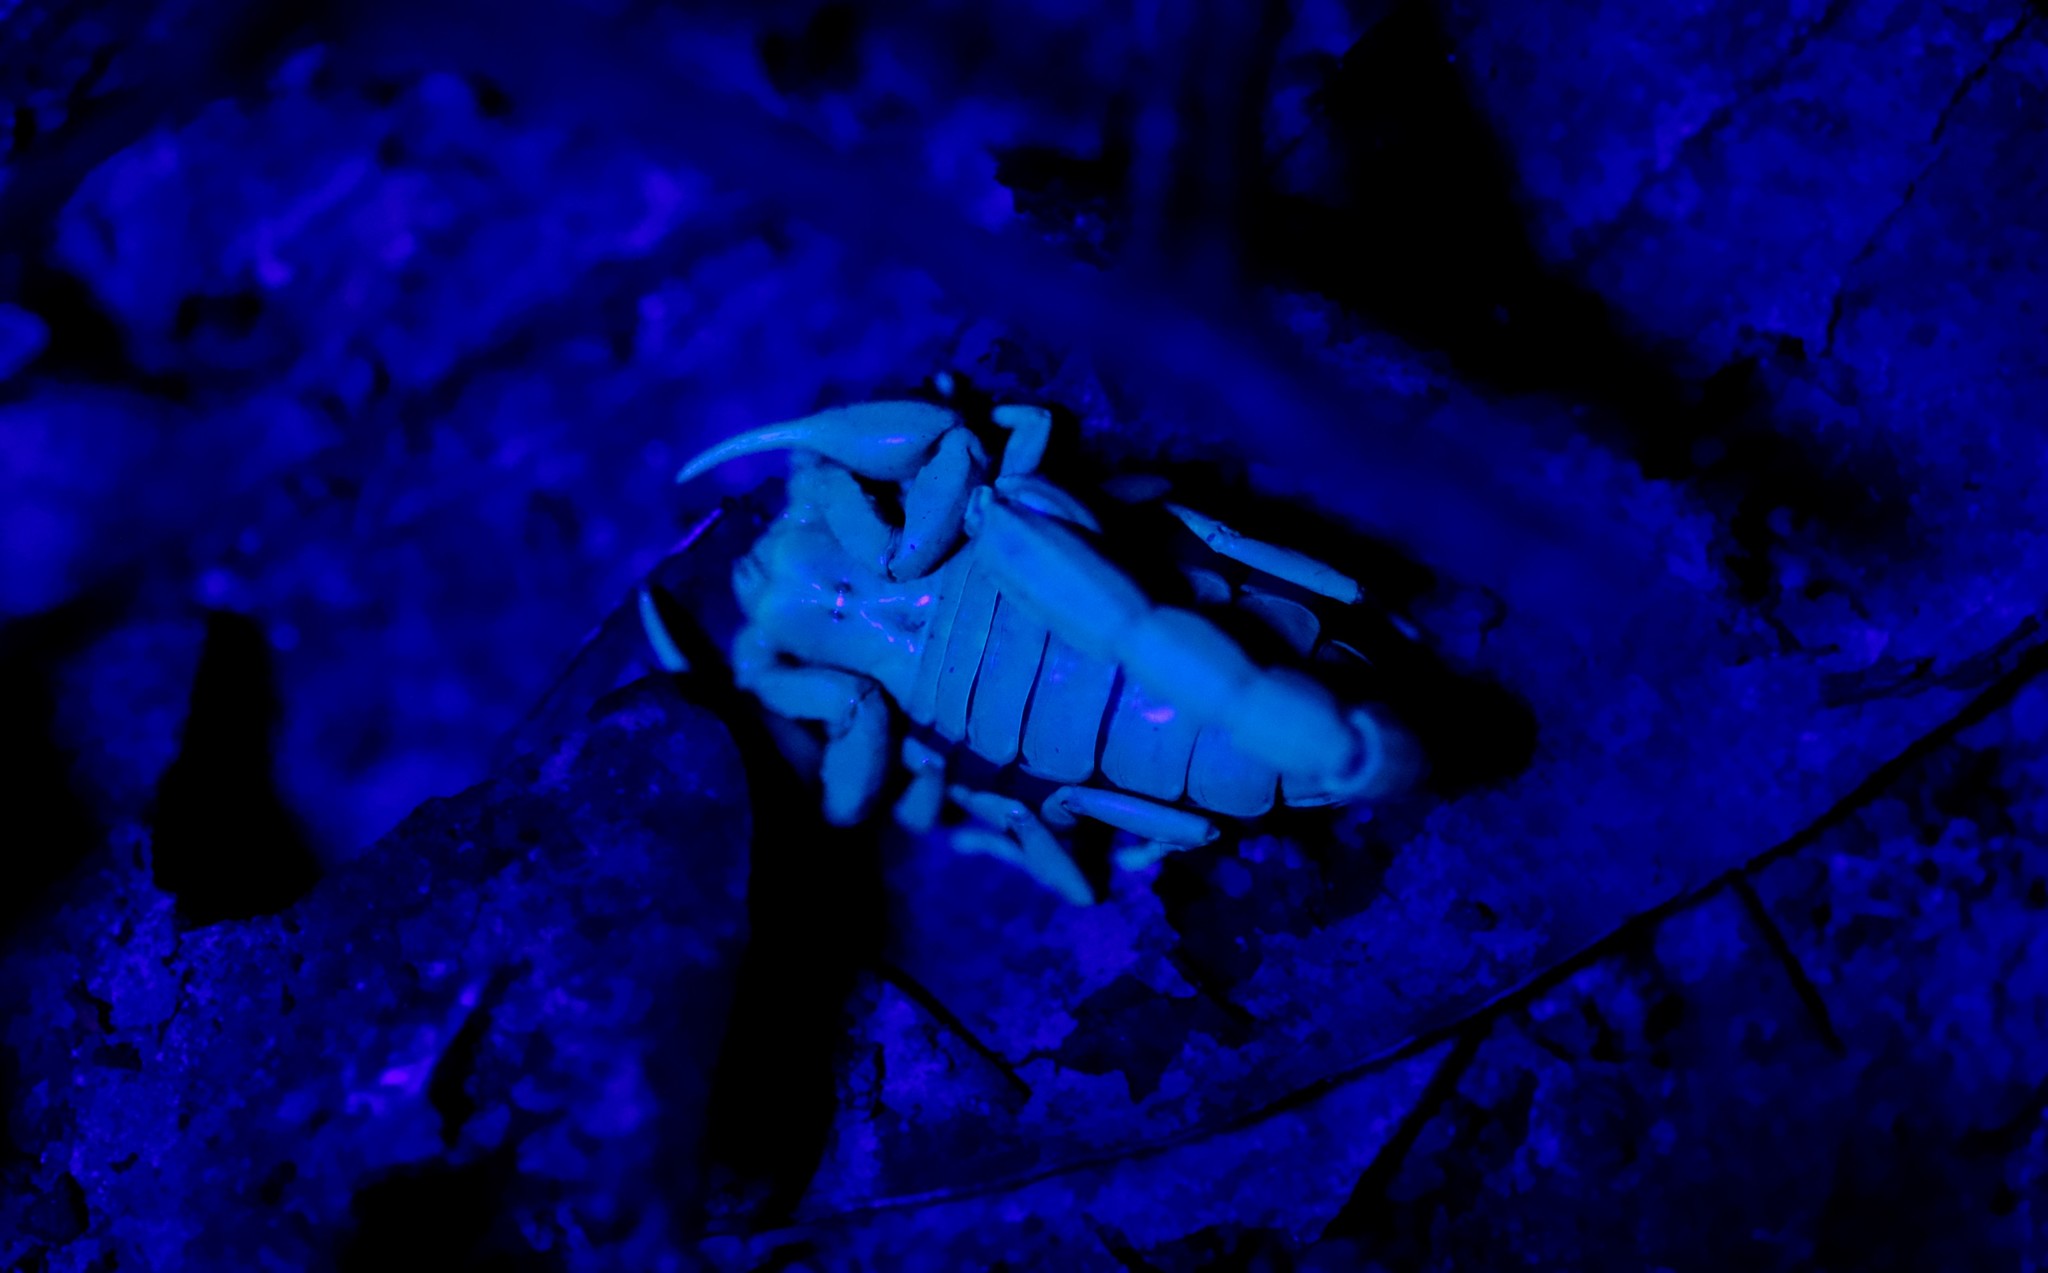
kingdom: Animalia
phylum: Arthropoda
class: Arachnida
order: Scorpiones
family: Bothriuridae
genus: Cercophonius
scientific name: Cercophonius squama
